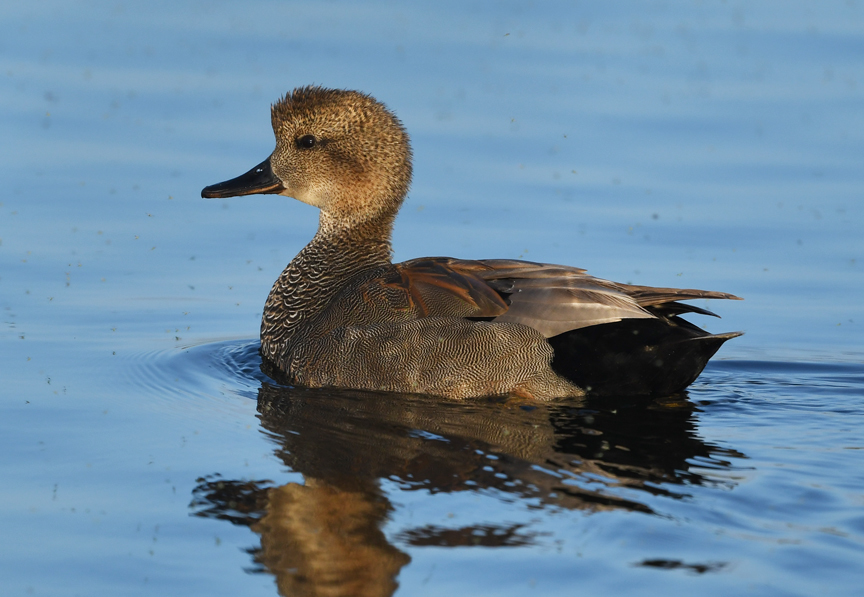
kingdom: Animalia
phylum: Chordata
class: Aves
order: Anseriformes
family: Anatidae
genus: Mareca
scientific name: Mareca strepera
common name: Gadwall
